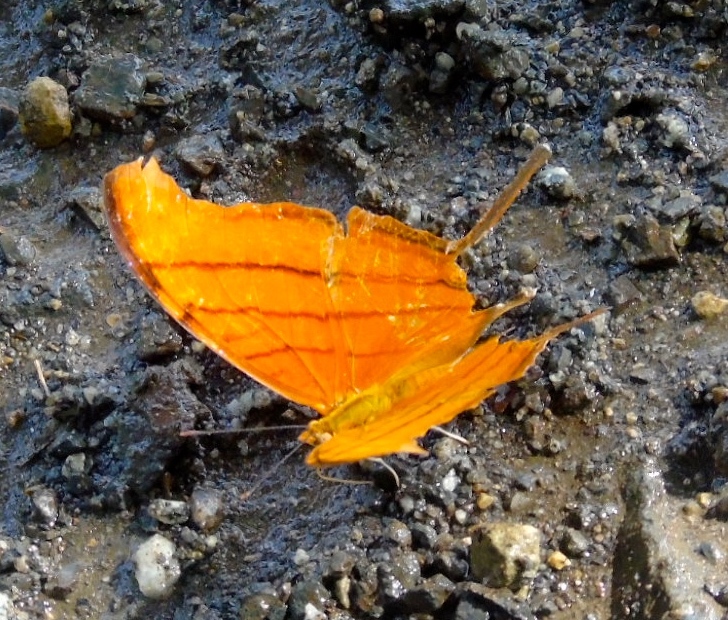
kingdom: Animalia
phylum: Arthropoda
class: Insecta
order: Lepidoptera
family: Nymphalidae
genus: Marpesia
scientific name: Marpesia petreus
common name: Red dagger wing
